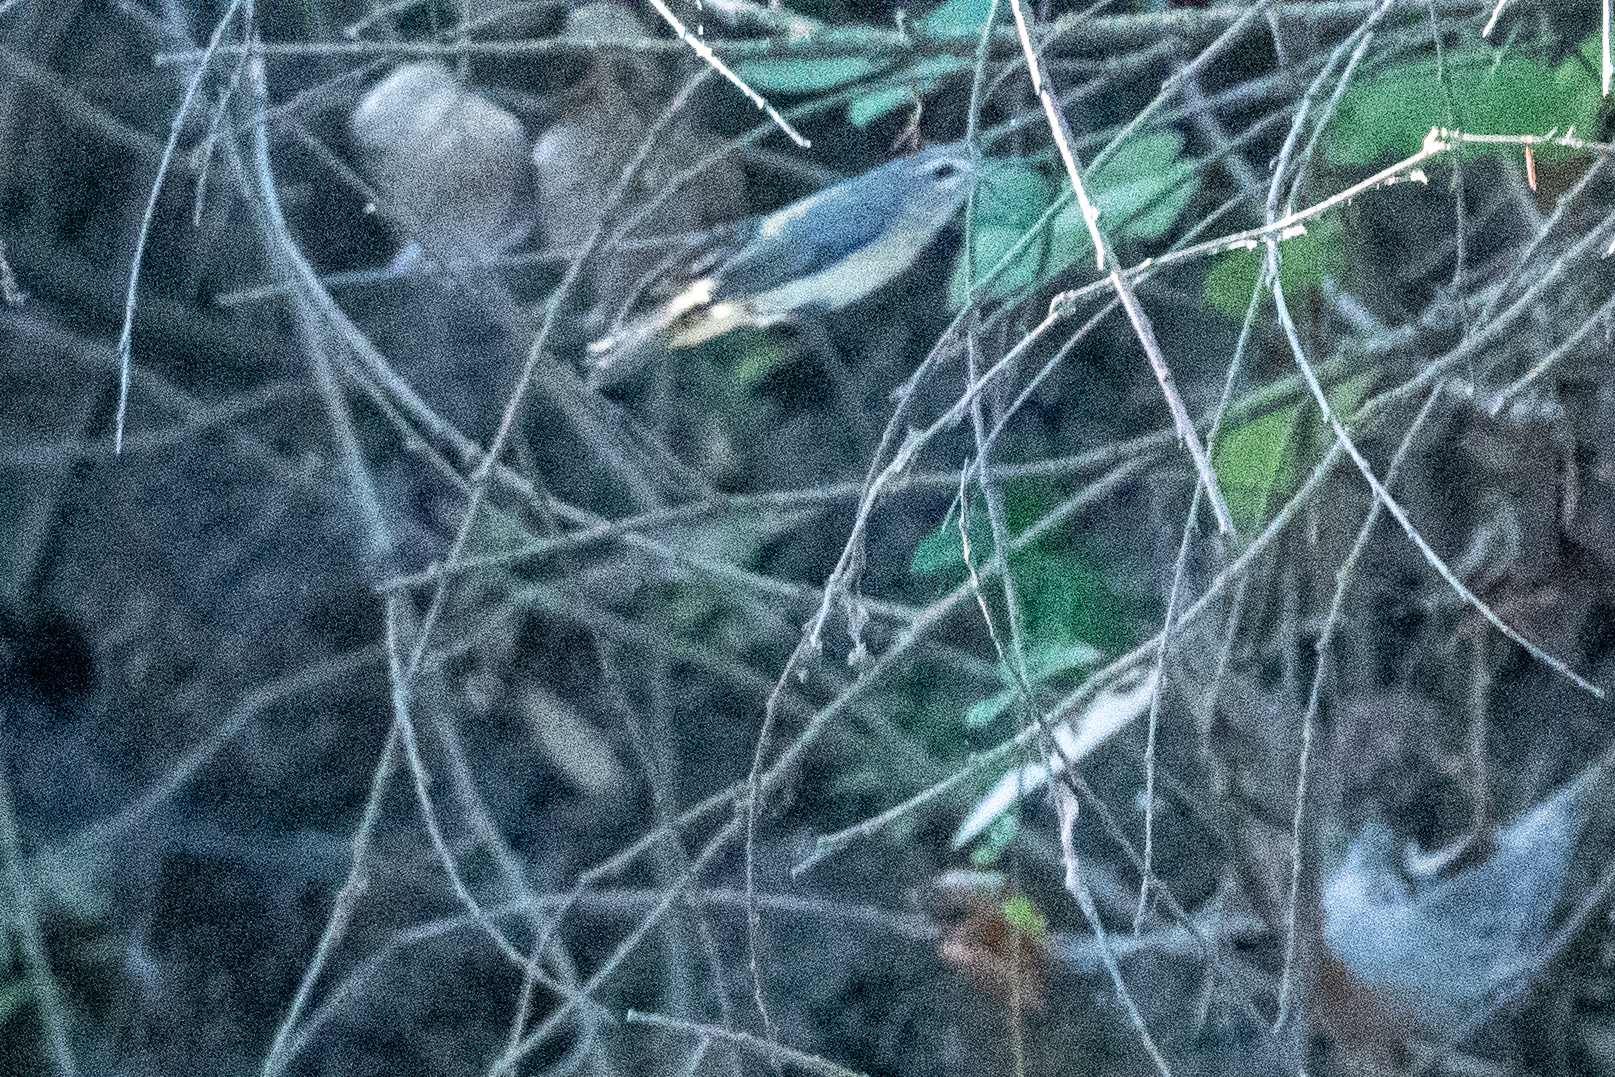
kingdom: Animalia
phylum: Chordata
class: Aves
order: Passeriformes
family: Vireonidae
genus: Vireo
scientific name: Vireo gilvus
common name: Warbling vireo
